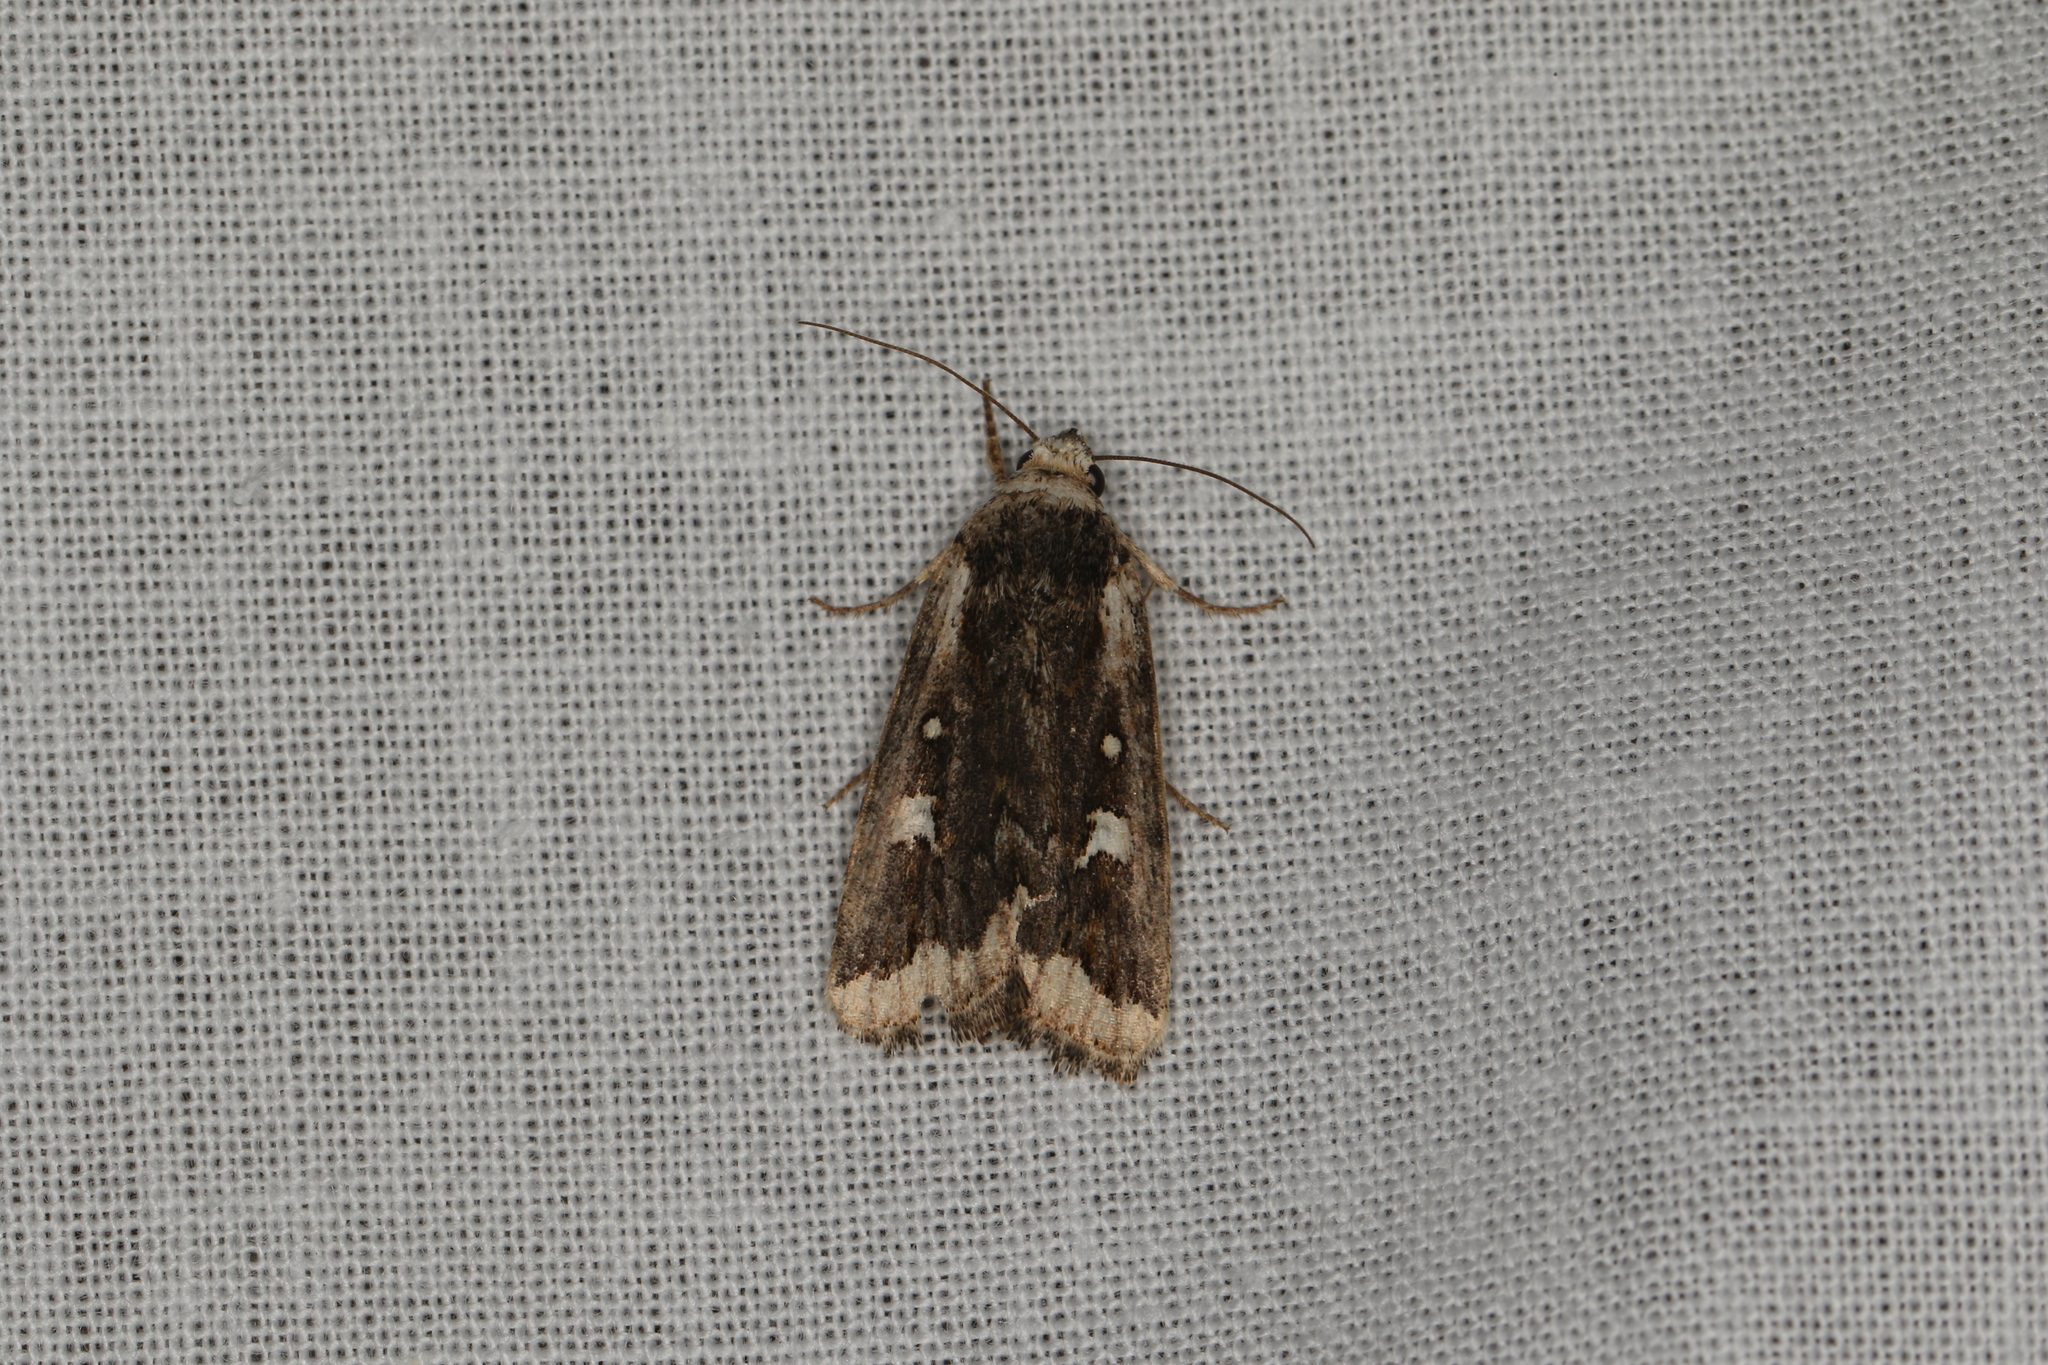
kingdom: Animalia
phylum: Arthropoda
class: Insecta
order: Lepidoptera
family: Noctuidae
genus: Proteuxoa
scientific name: Proteuxoa heliosema
